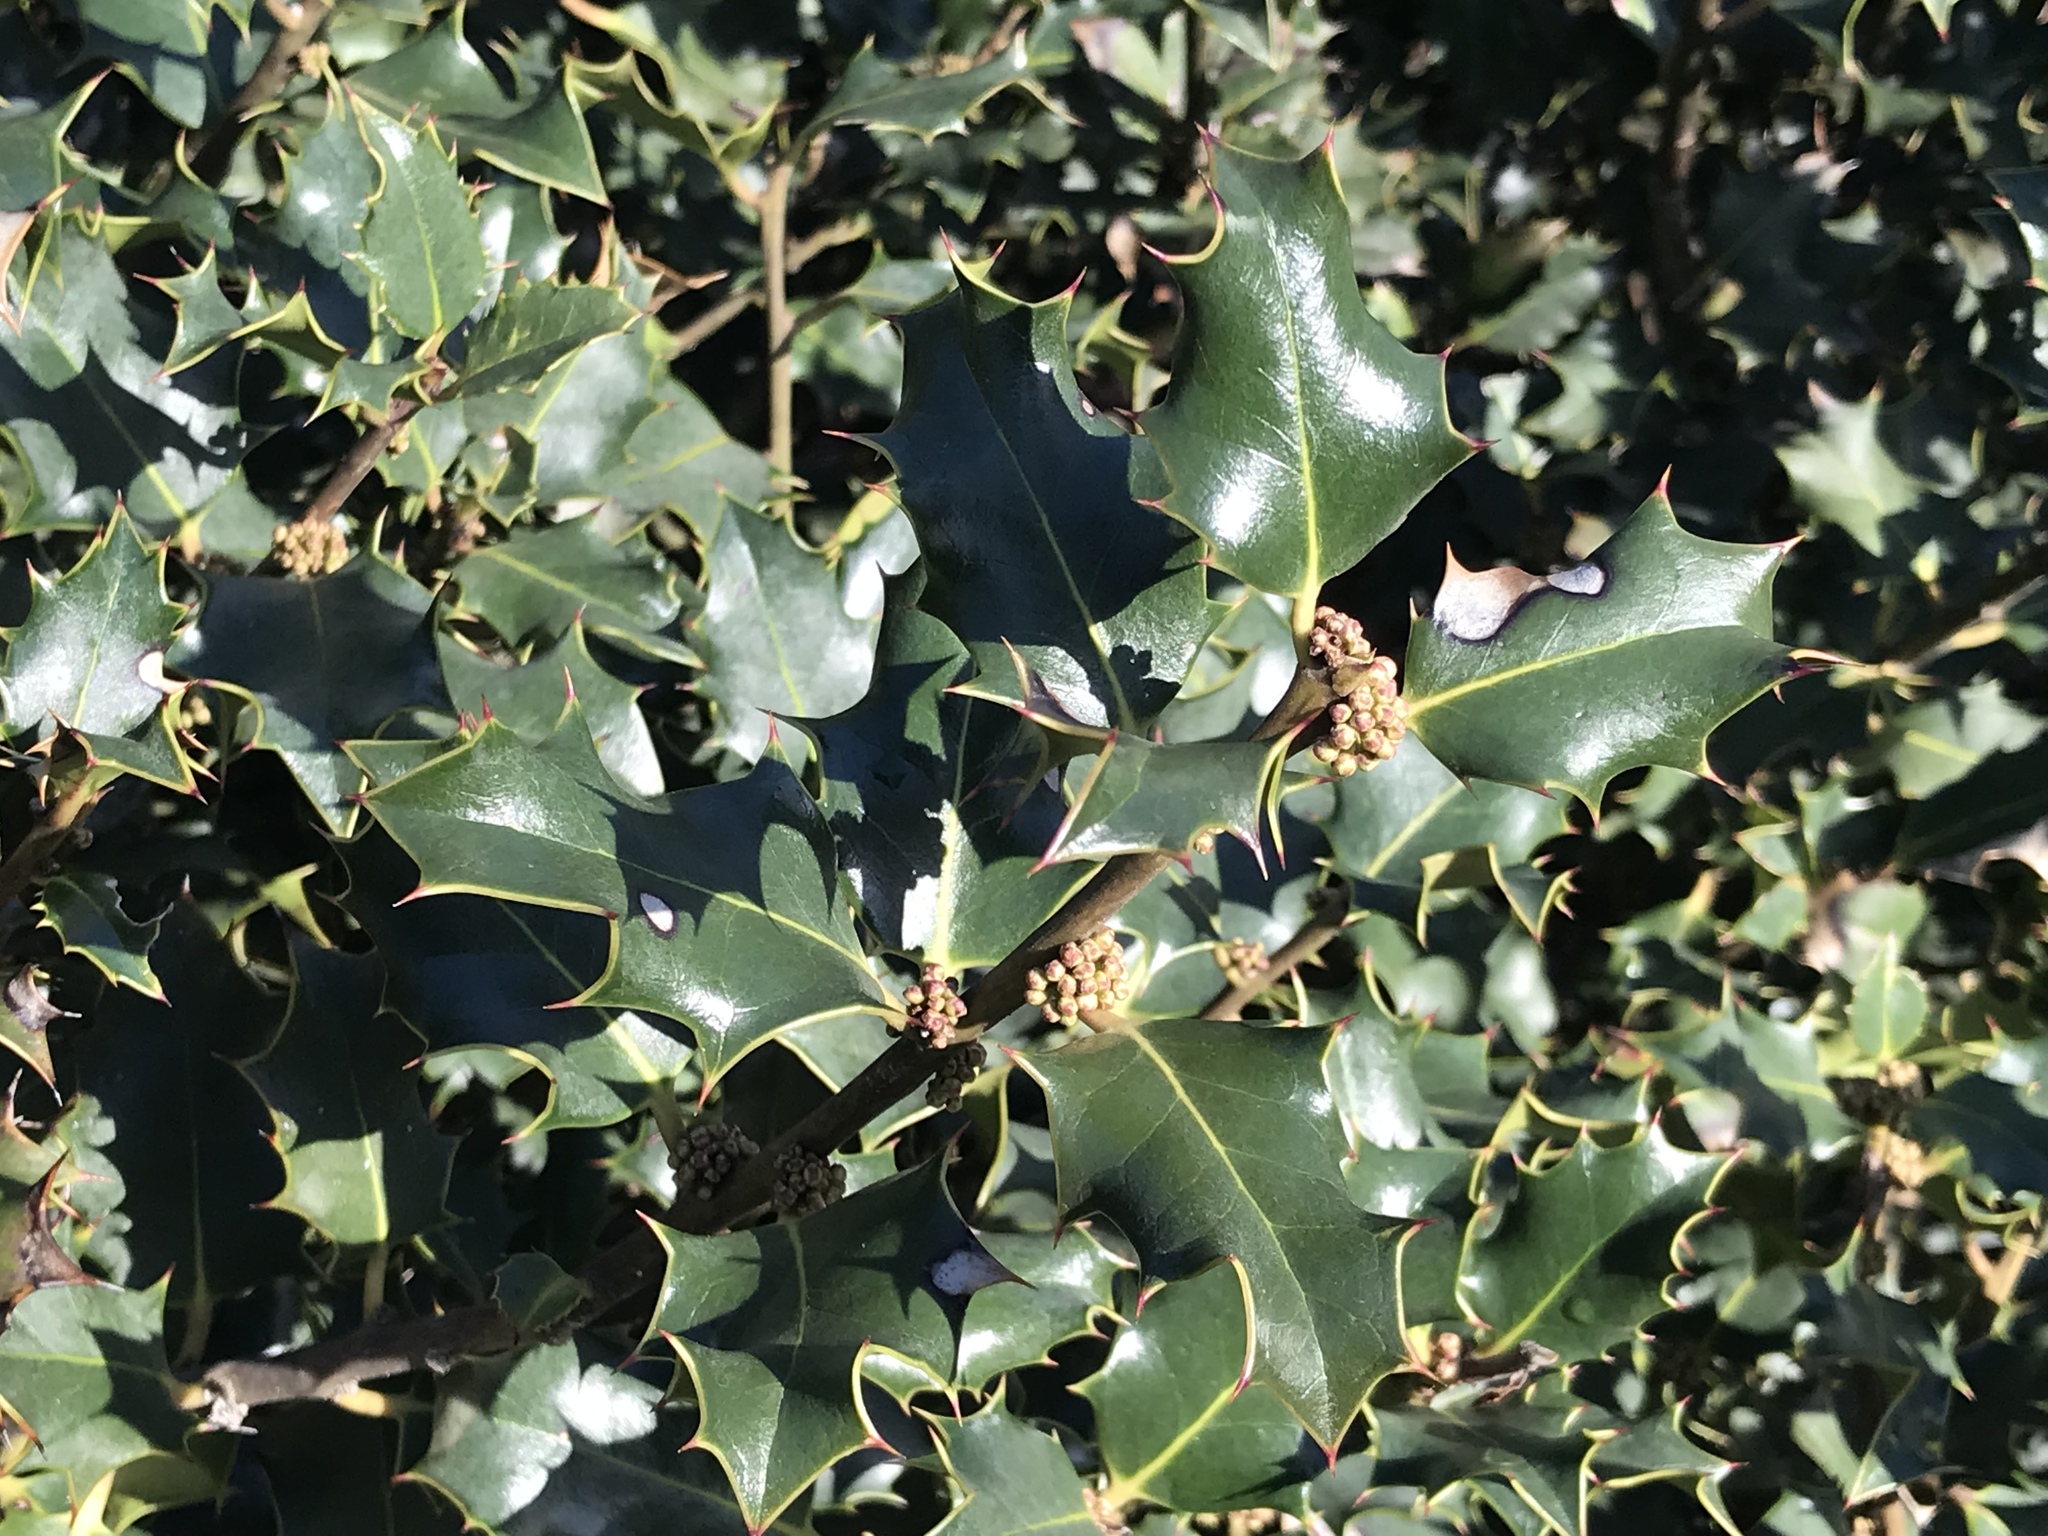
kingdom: Plantae
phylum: Tracheophyta
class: Magnoliopsida
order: Aquifoliales
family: Aquifoliaceae
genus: Ilex
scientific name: Ilex aquifolium
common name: English holly
